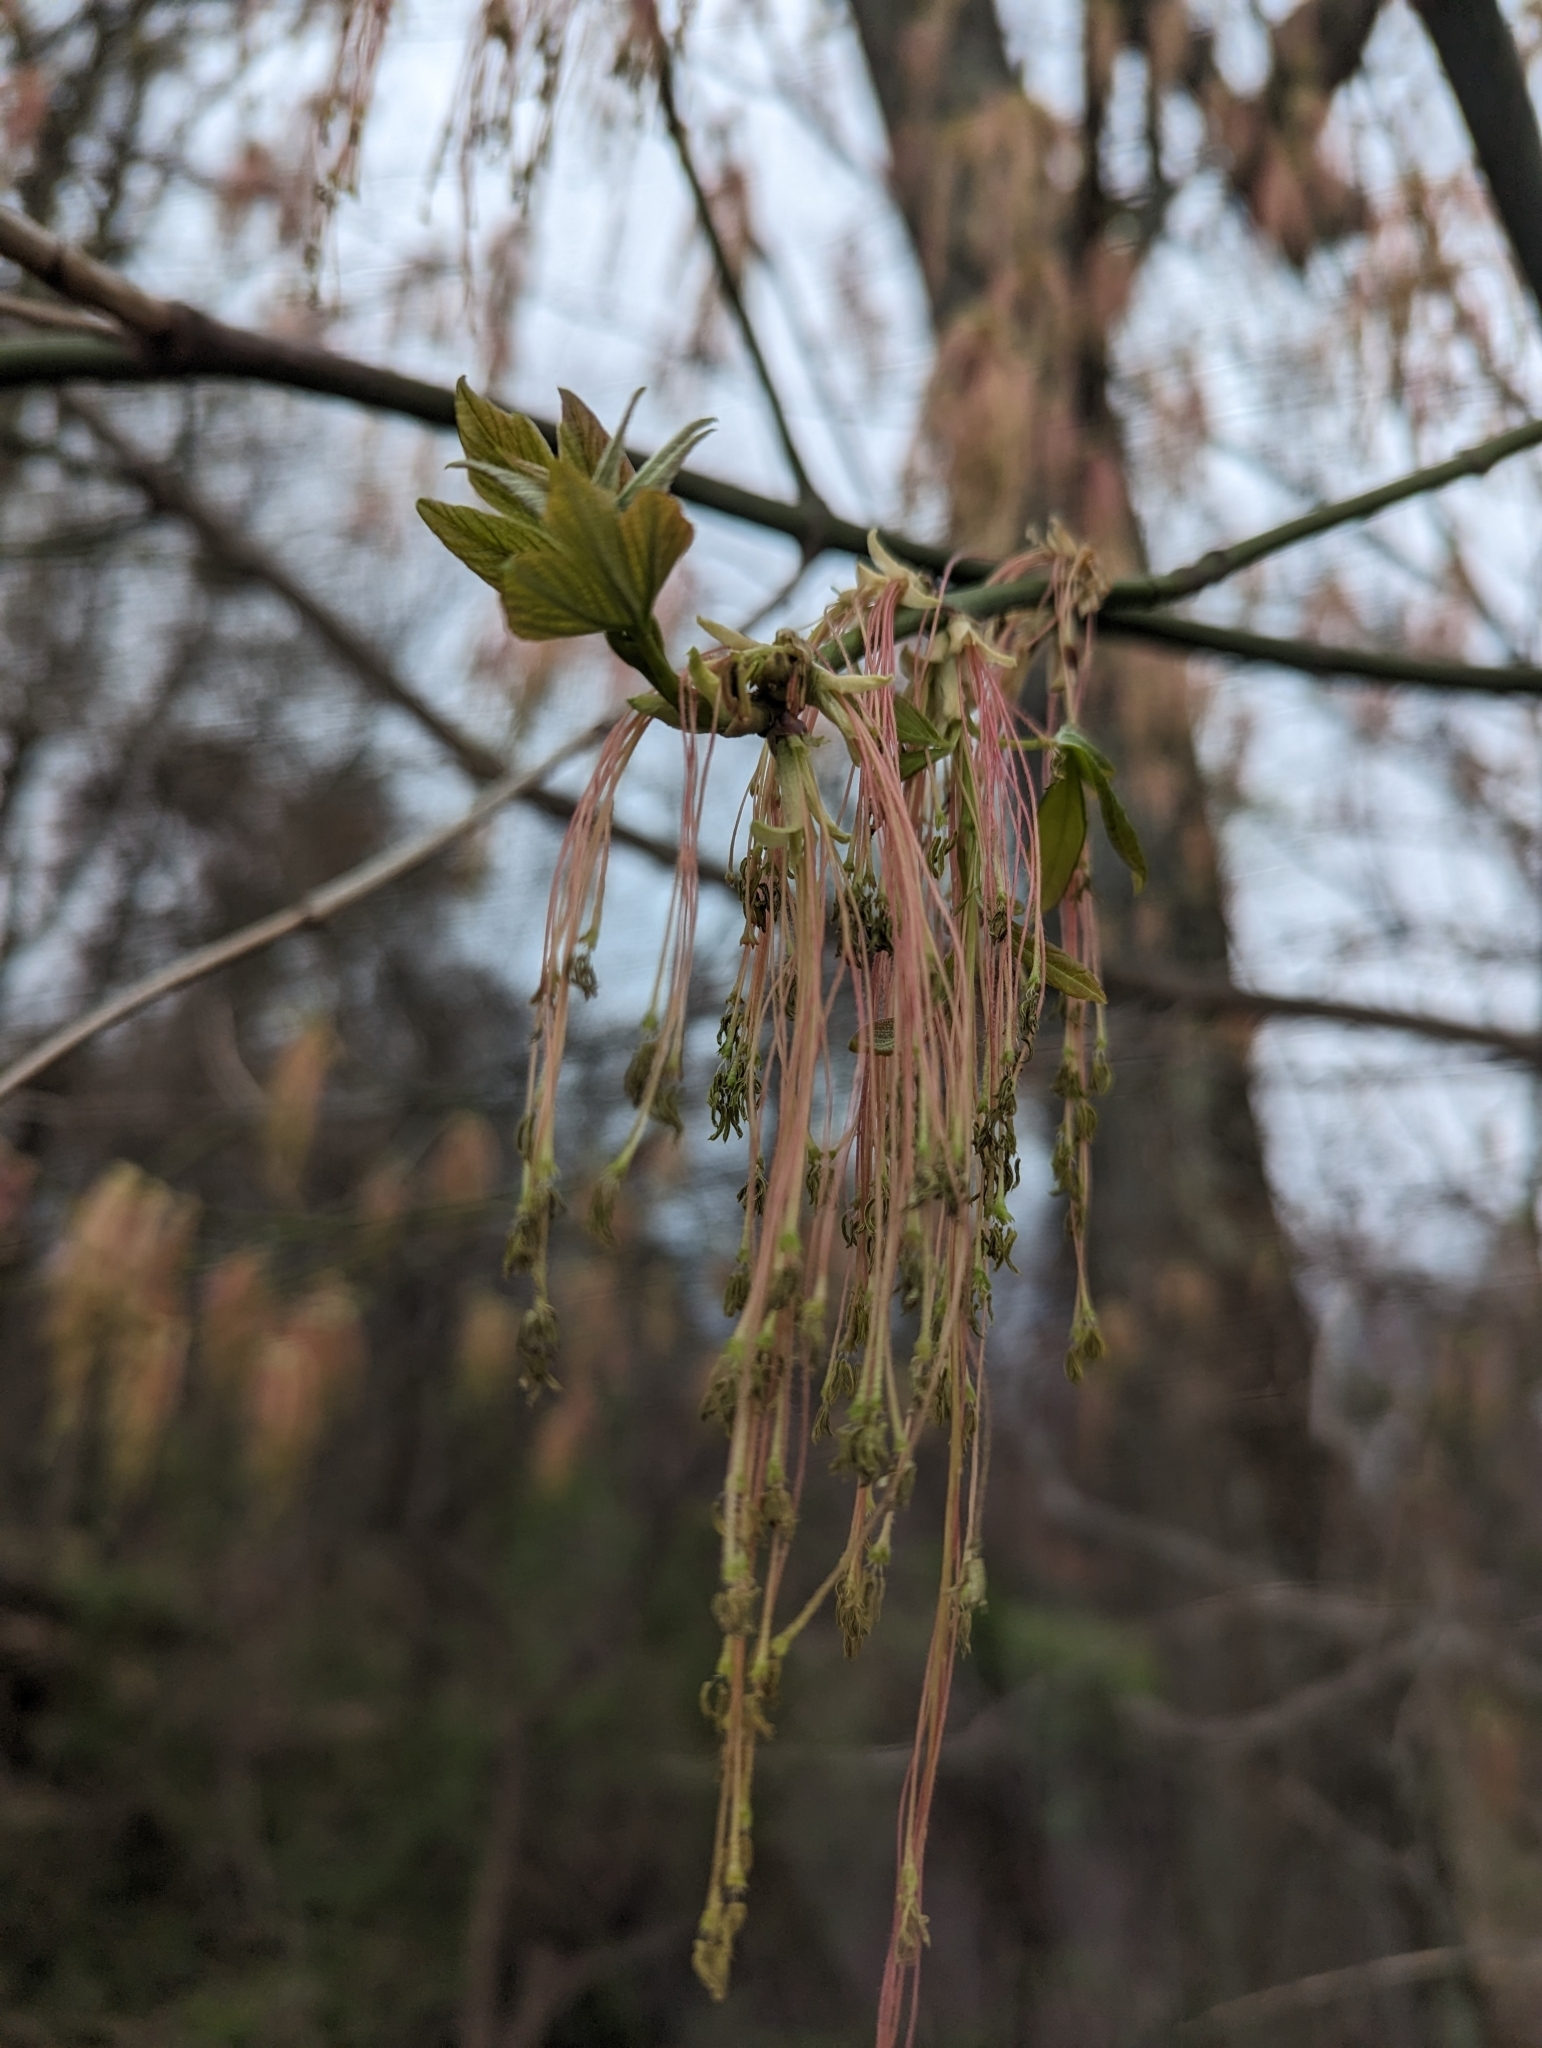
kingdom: Plantae
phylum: Tracheophyta
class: Magnoliopsida
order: Sapindales
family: Sapindaceae
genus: Acer
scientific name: Acer negundo
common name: Ashleaf maple
